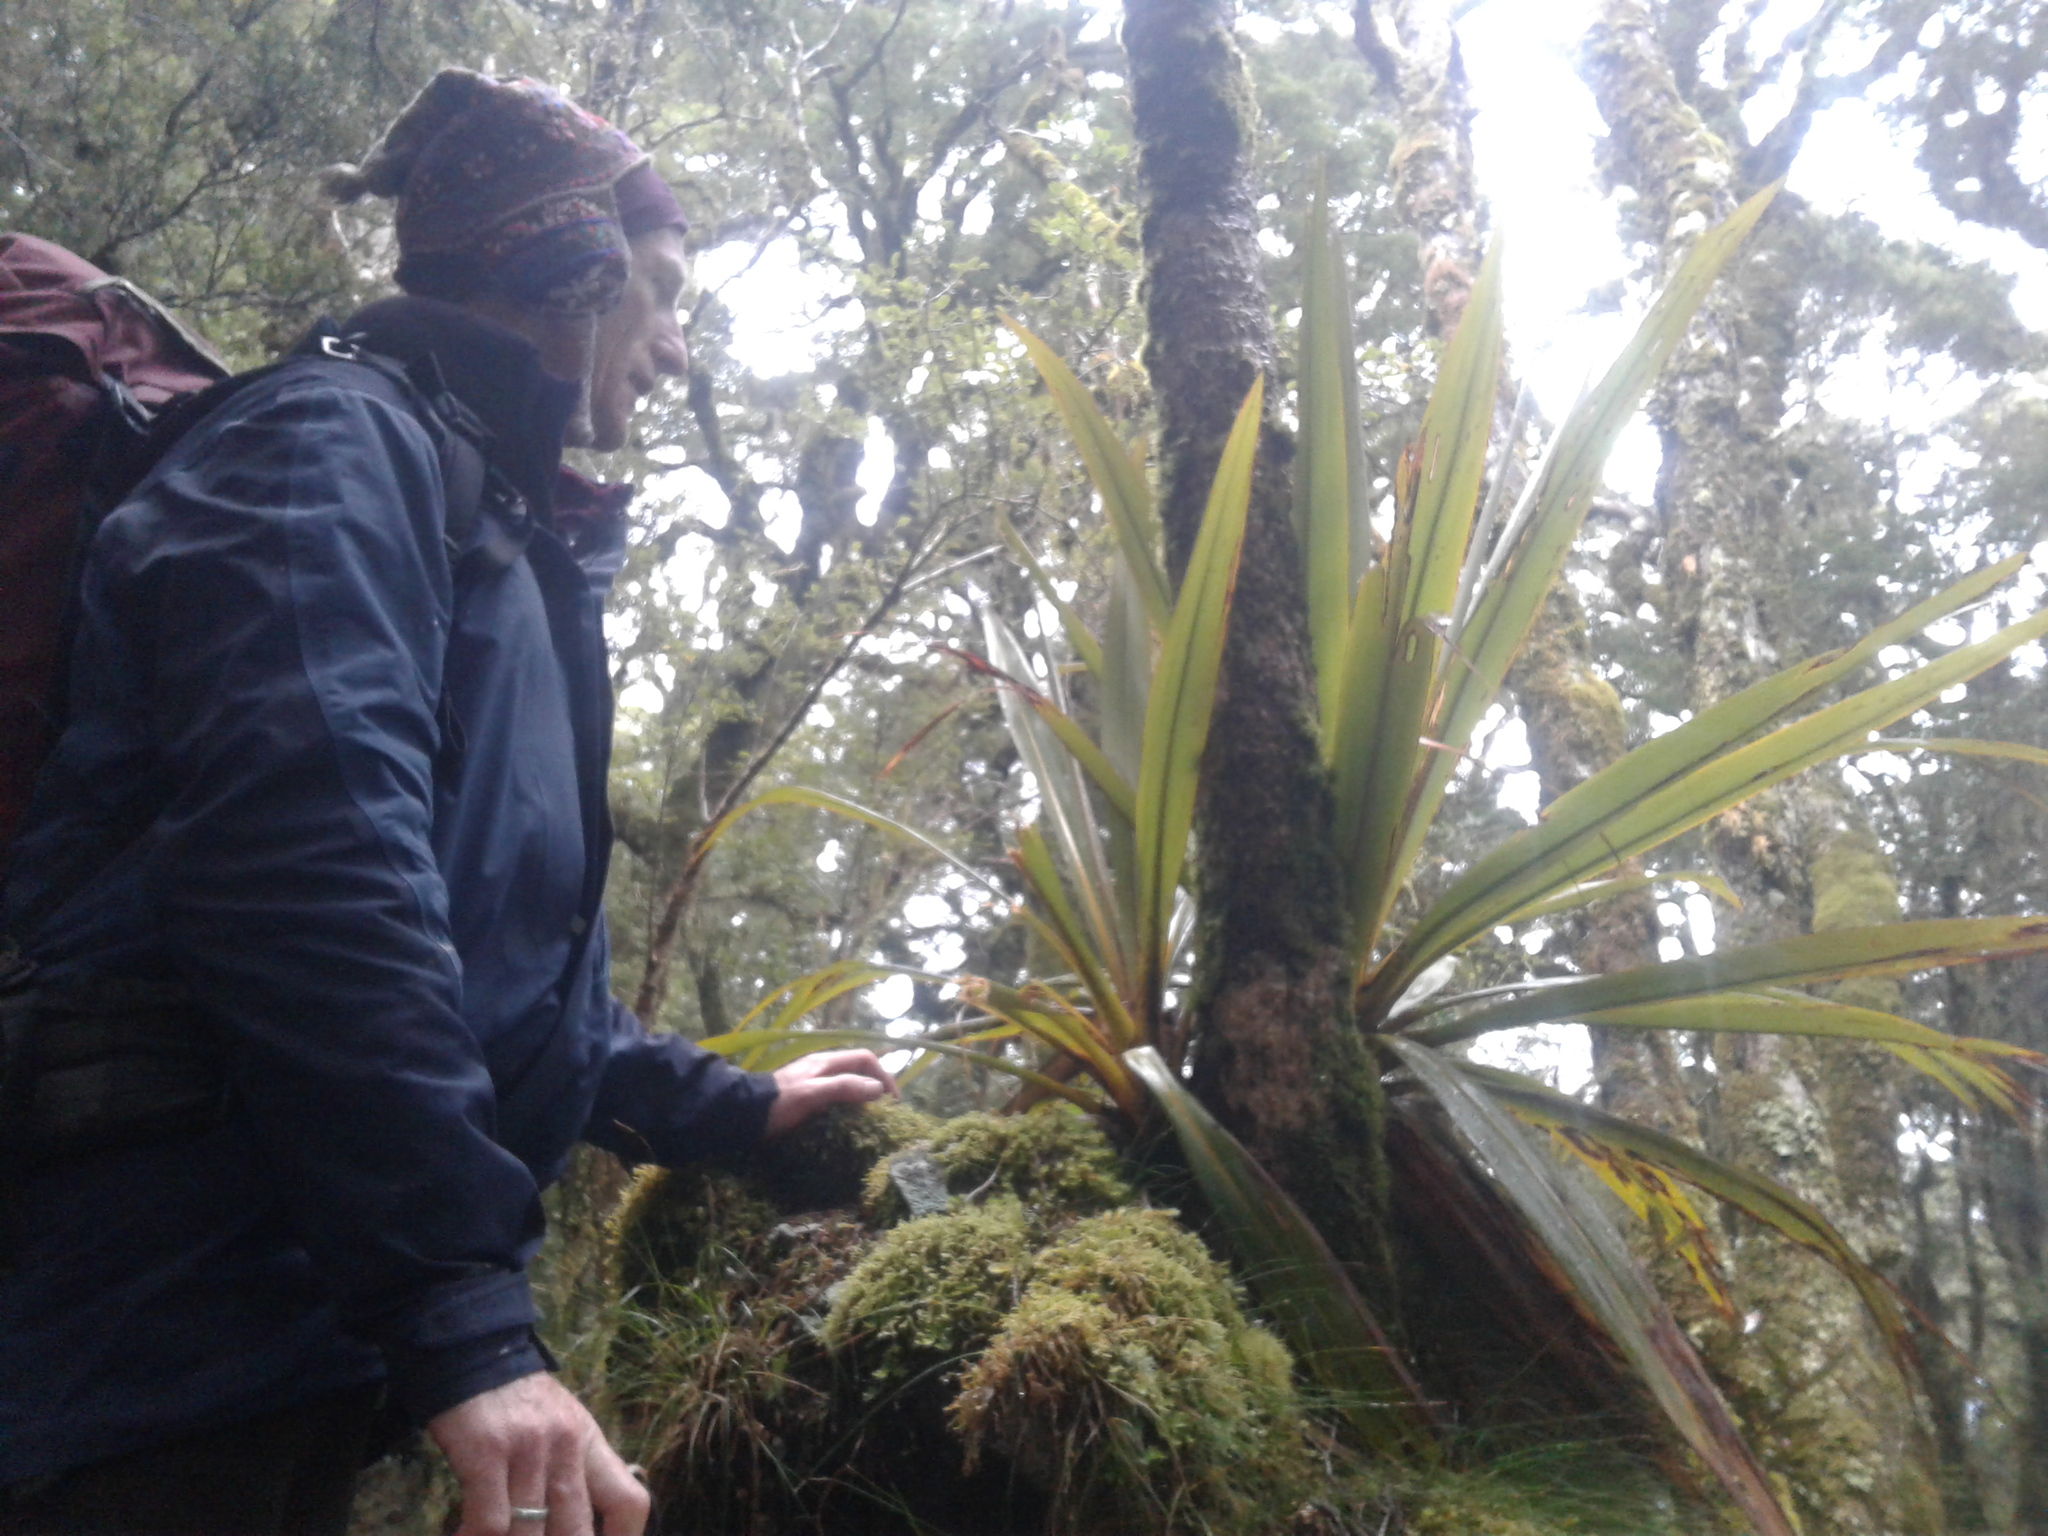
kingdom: Plantae
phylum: Tracheophyta
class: Liliopsida
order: Asparagales
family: Asparagaceae
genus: Cordyline
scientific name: Cordyline indivisa
